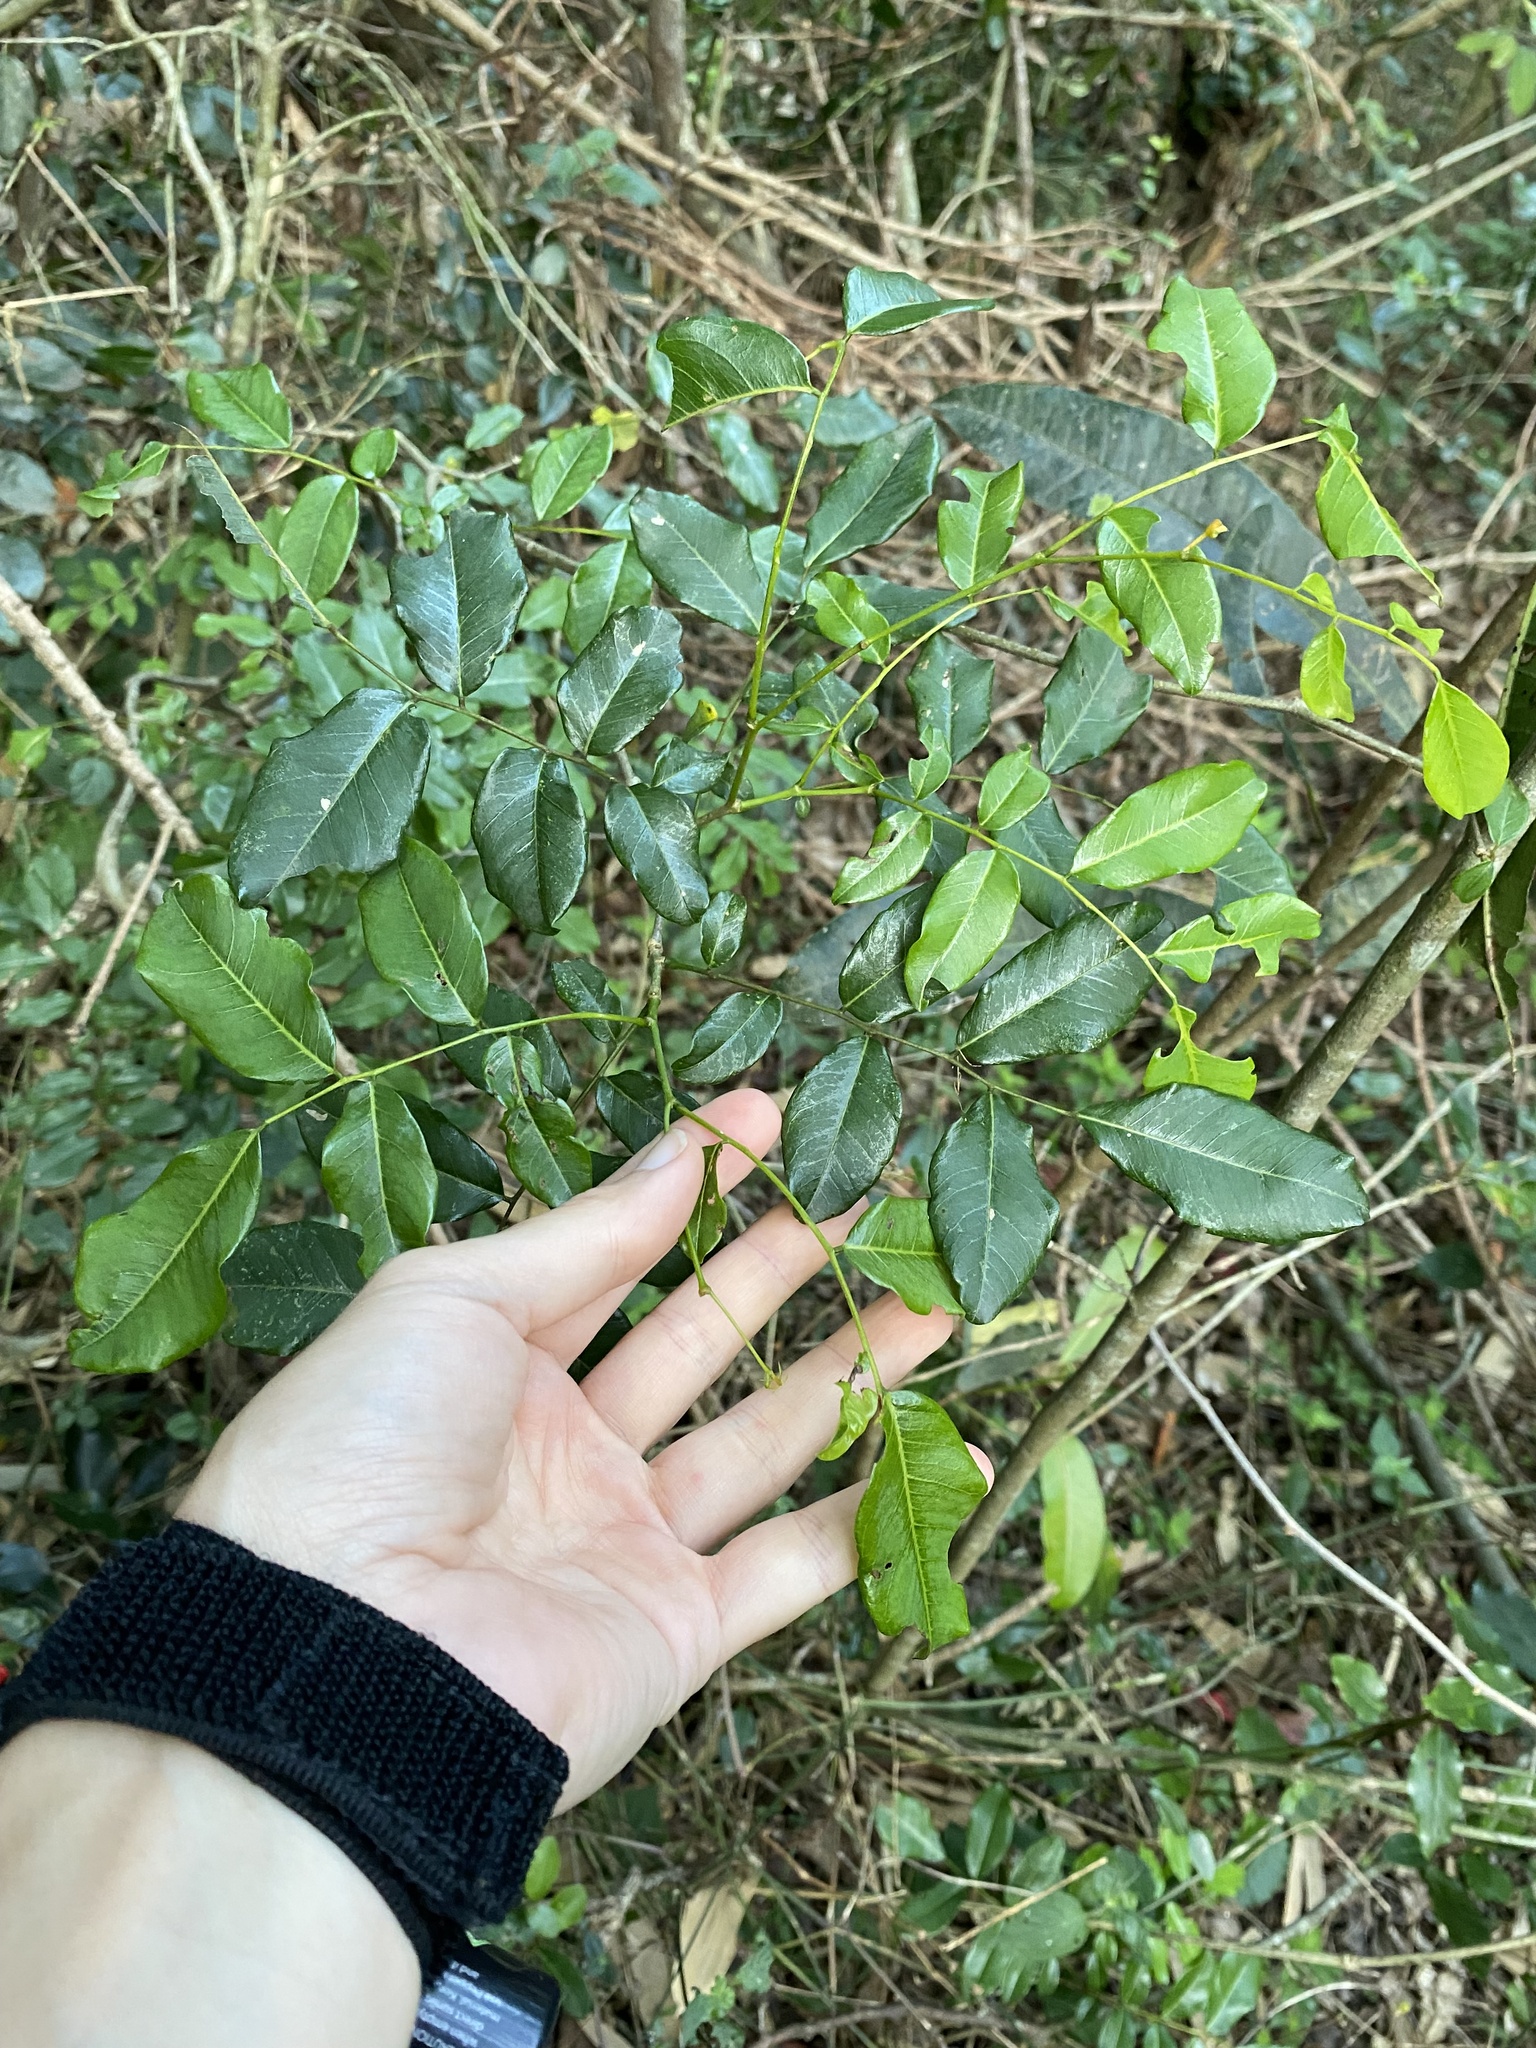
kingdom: Plantae
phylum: Tracheophyta
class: Magnoliopsida
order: Fabales
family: Fabaceae
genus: Dalbergia
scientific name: Dalbergia obovata
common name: Climbing flat-bean
